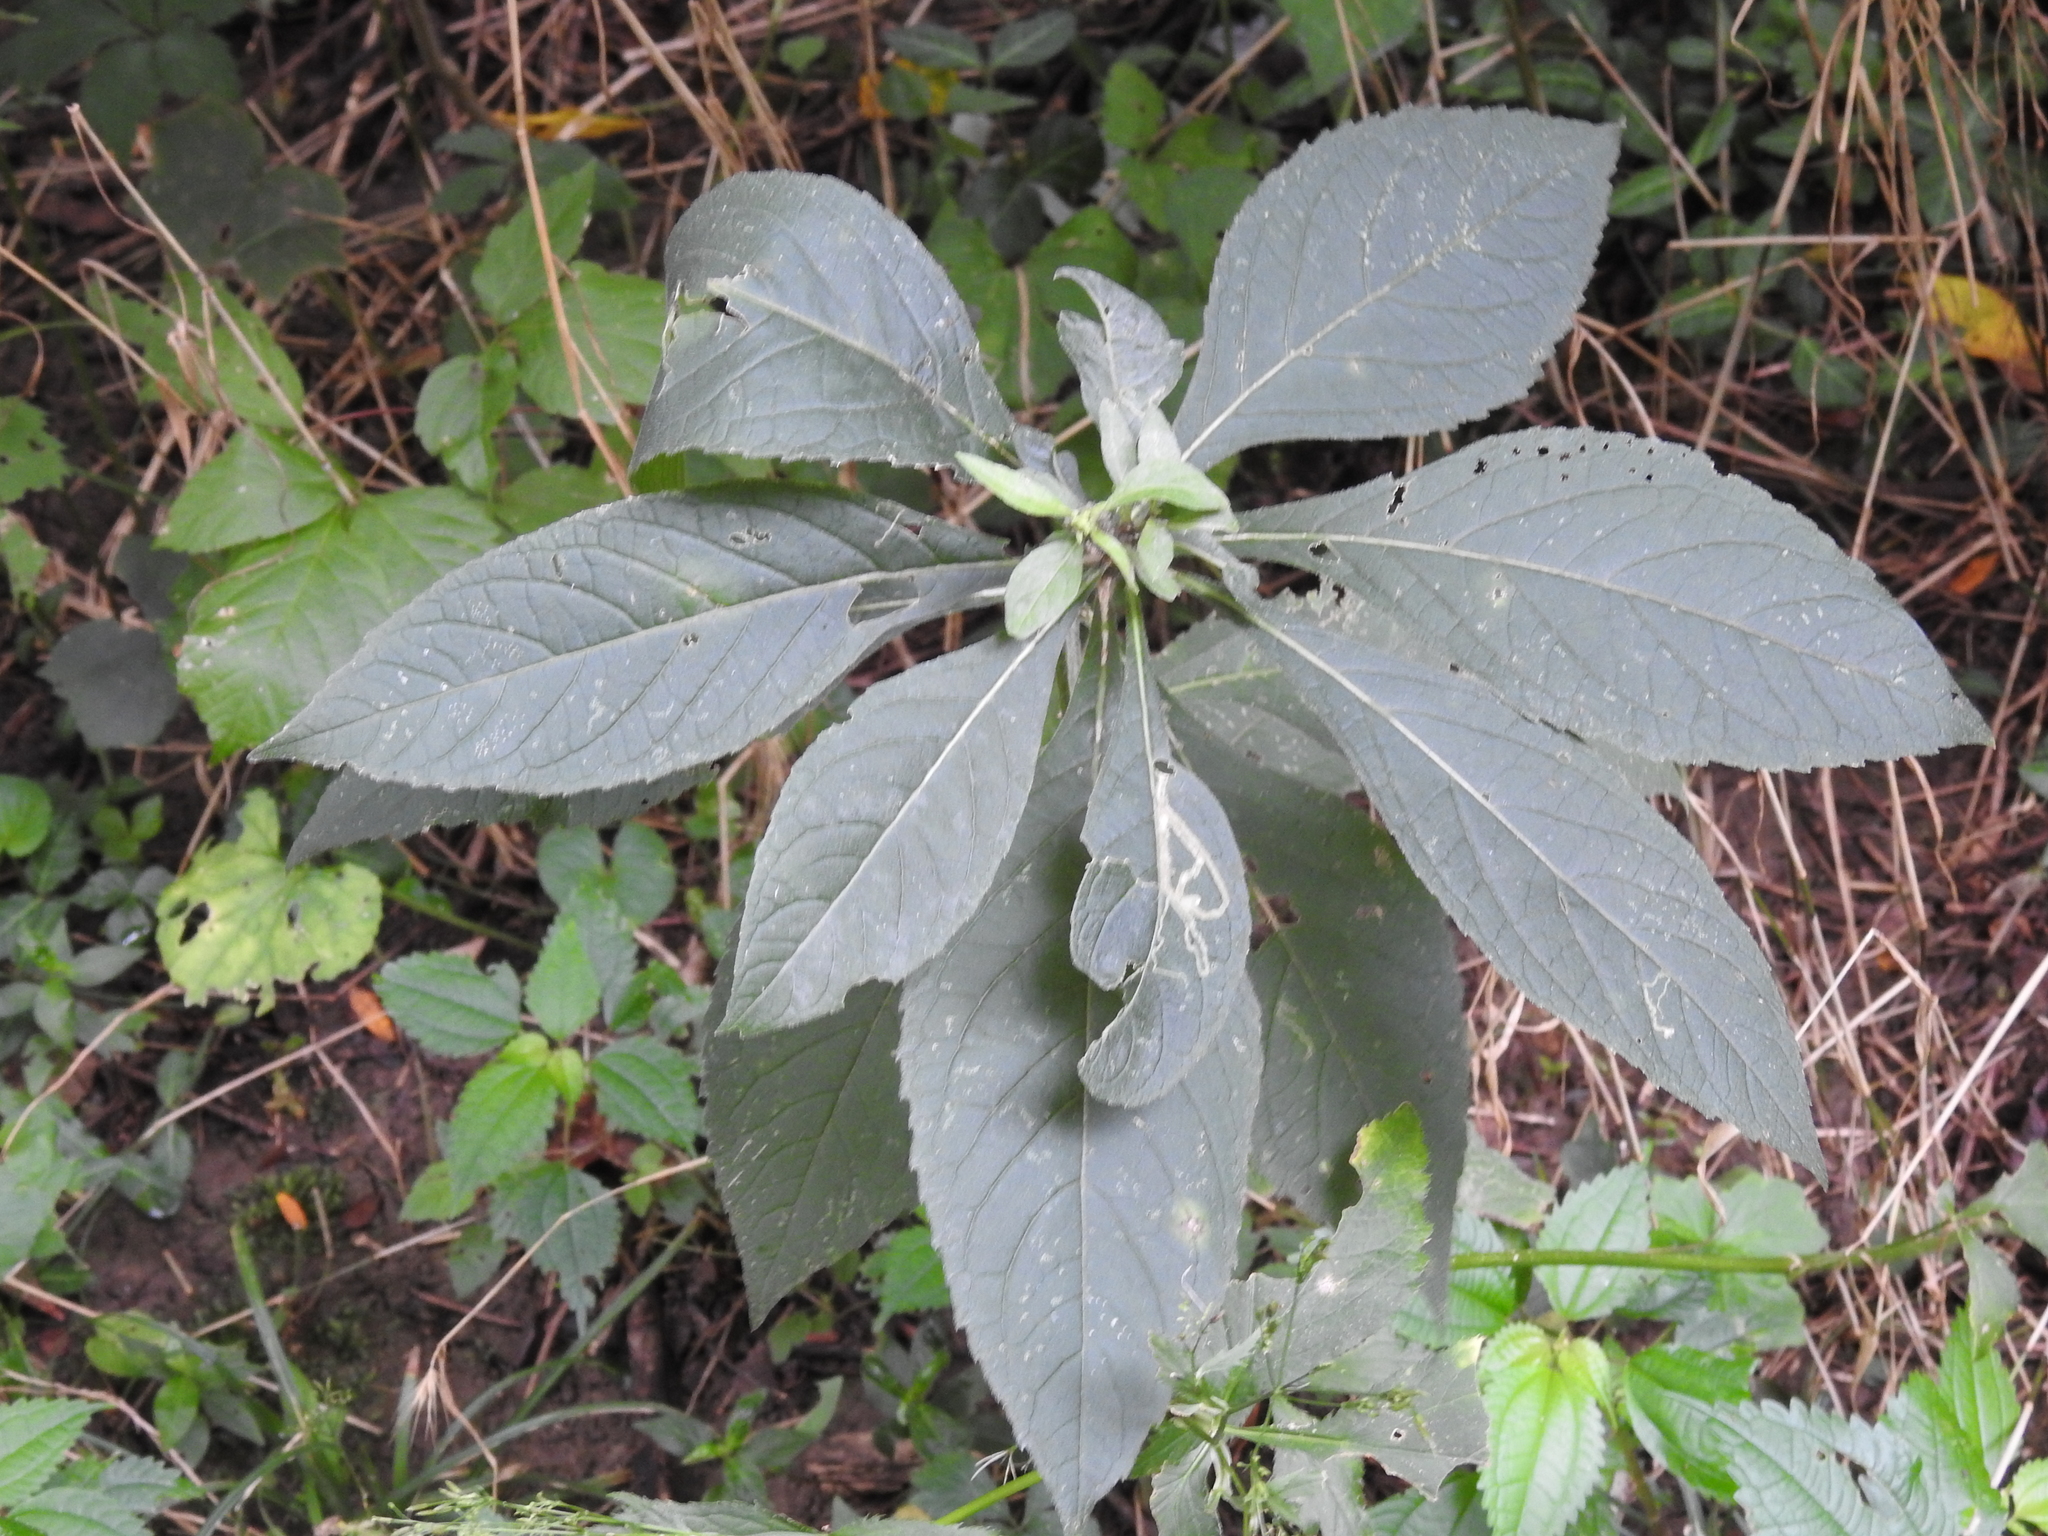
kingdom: Plantae
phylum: Tracheophyta
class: Magnoliopsida
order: Asterales
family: Asteraceae
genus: Verbesina
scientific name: Verbesina alternifolia
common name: Wingstem
